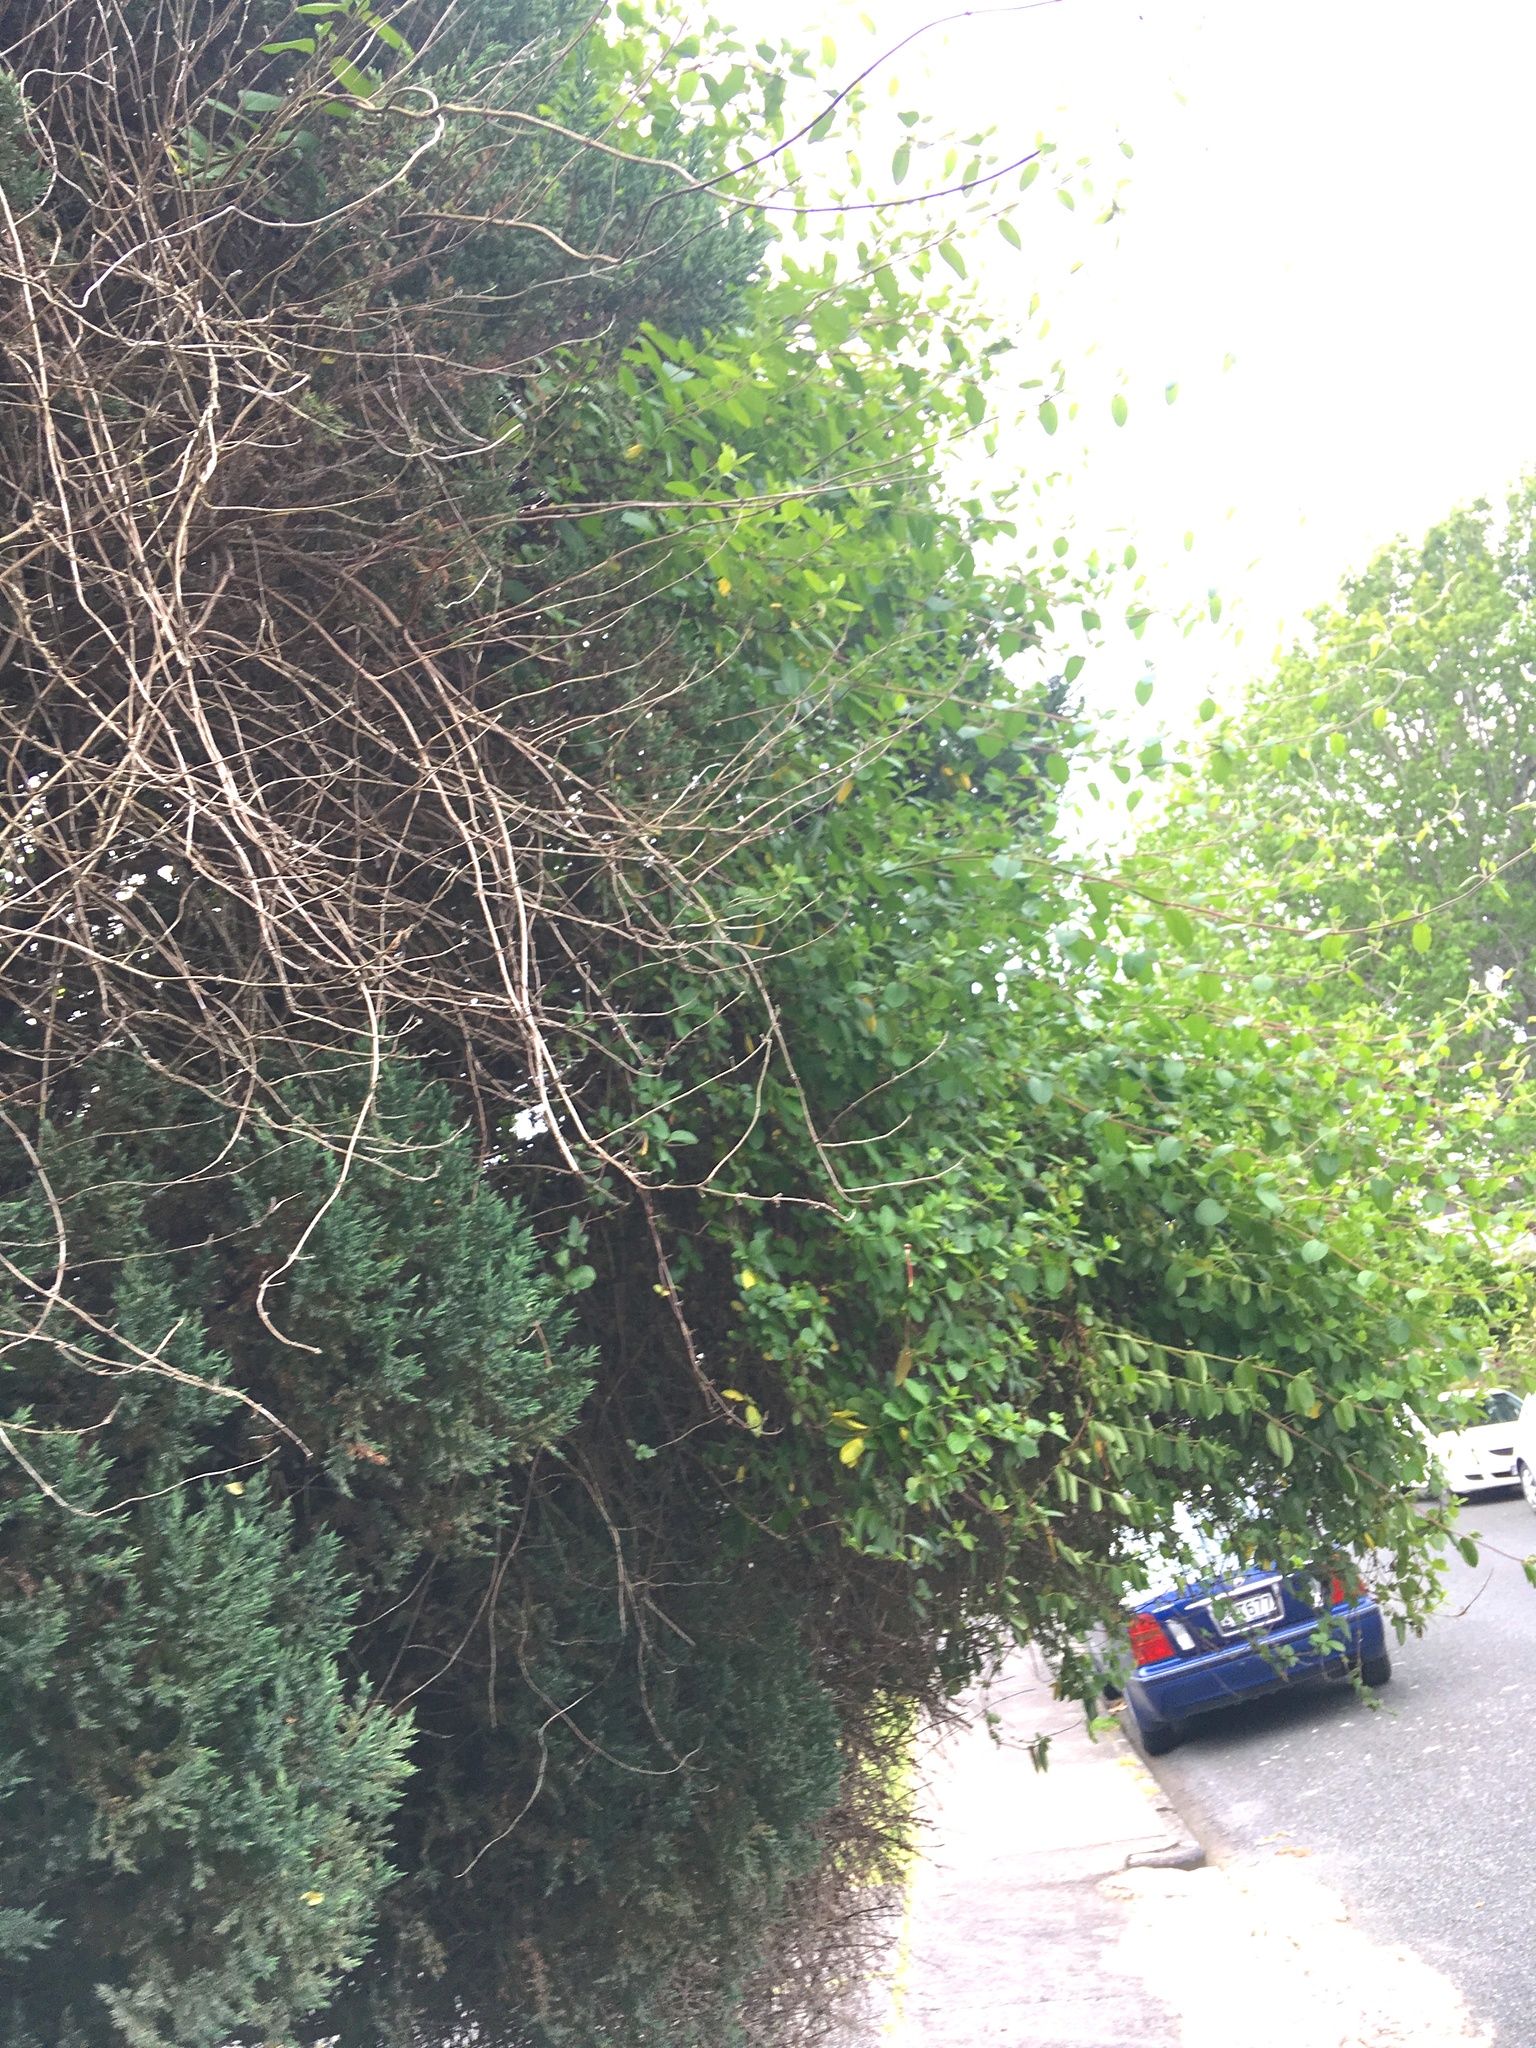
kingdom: Plantae
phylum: Tracheophyta
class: Magnoliopsida
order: Dipsacales
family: Caprifoliaceae
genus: Lonicera
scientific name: Lonicera japonica
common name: Japanese honeysuckle
